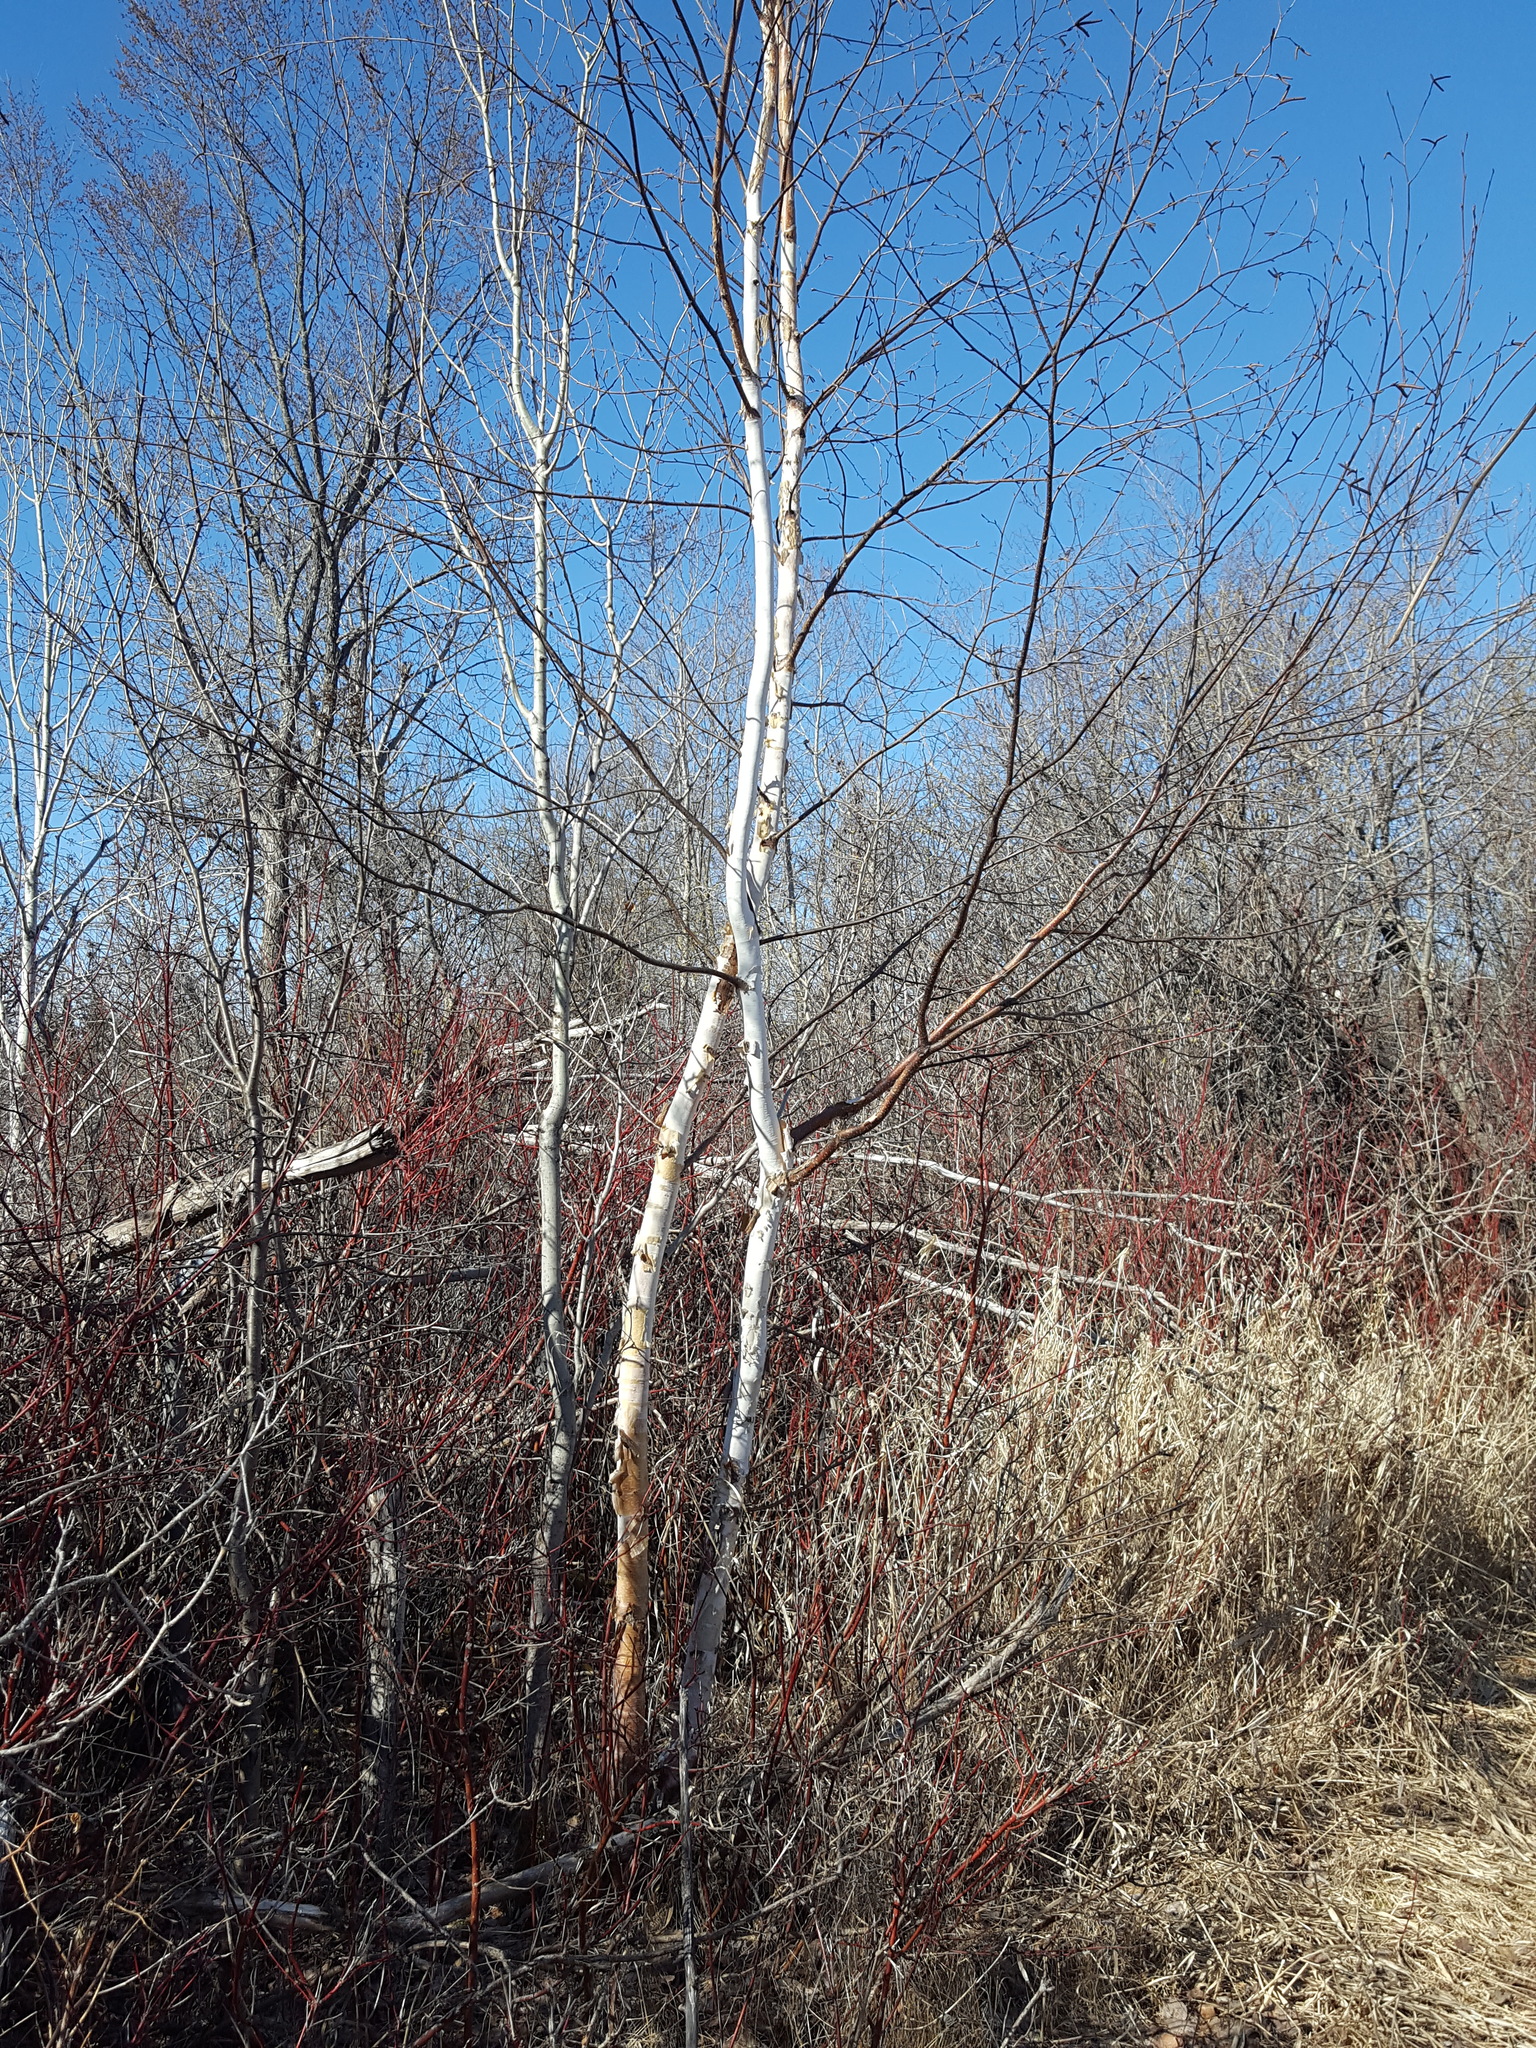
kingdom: Plantae
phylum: Tracheophyta
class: Magnoliopsida
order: Fagales
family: Betulaceae
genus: Betula
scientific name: Betula papyrifera
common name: Paper birch
